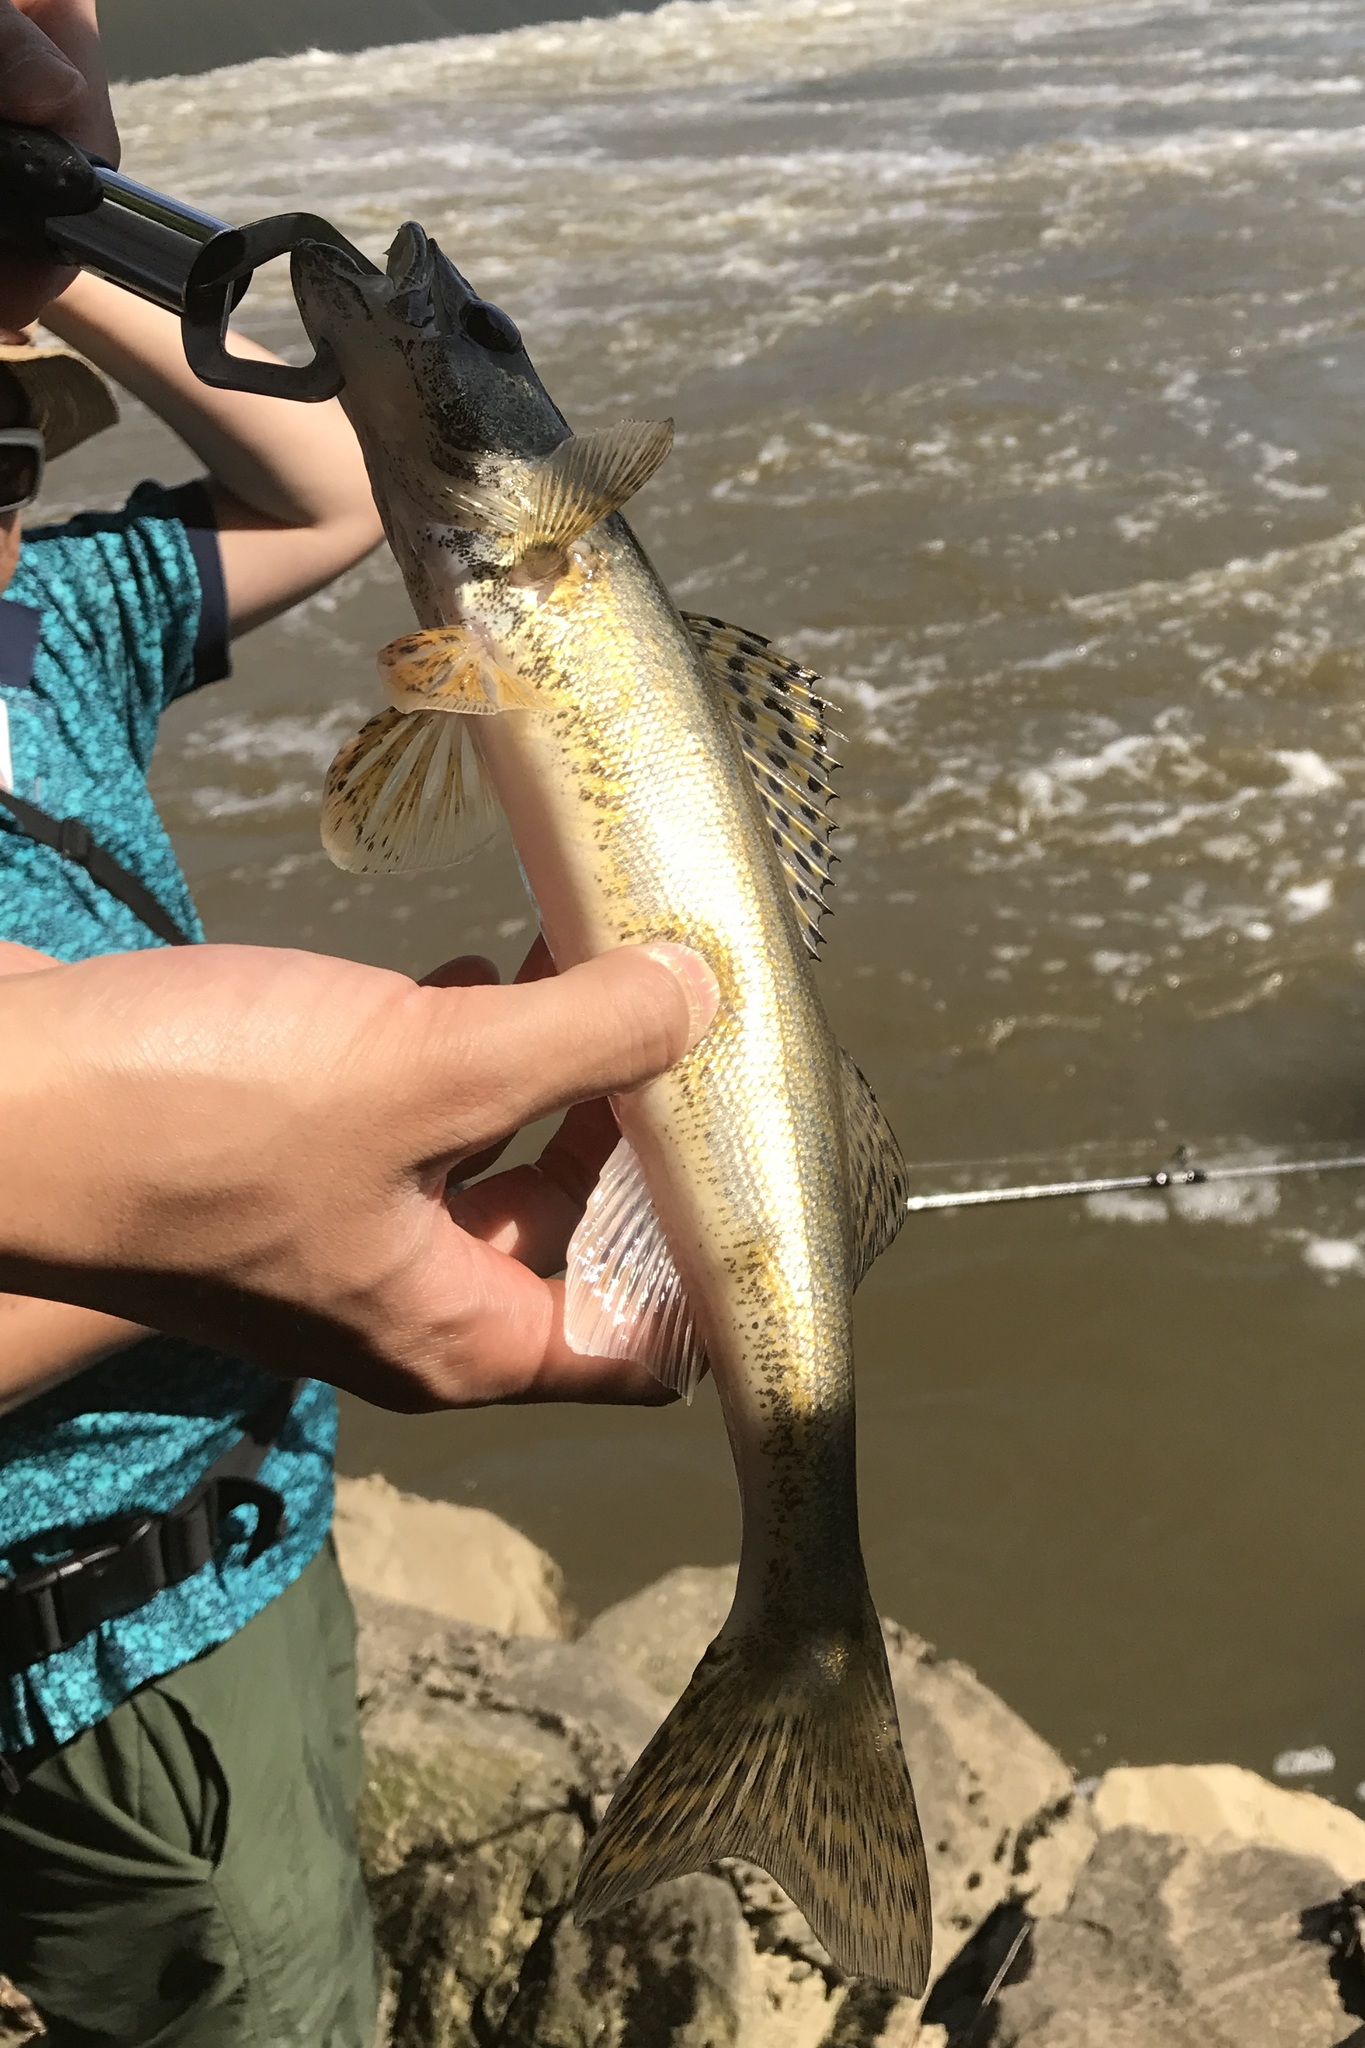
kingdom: Animalia
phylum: Chordata
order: Perciformes
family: Percidae
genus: Sander
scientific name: Sander canadensis
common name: Sauger
